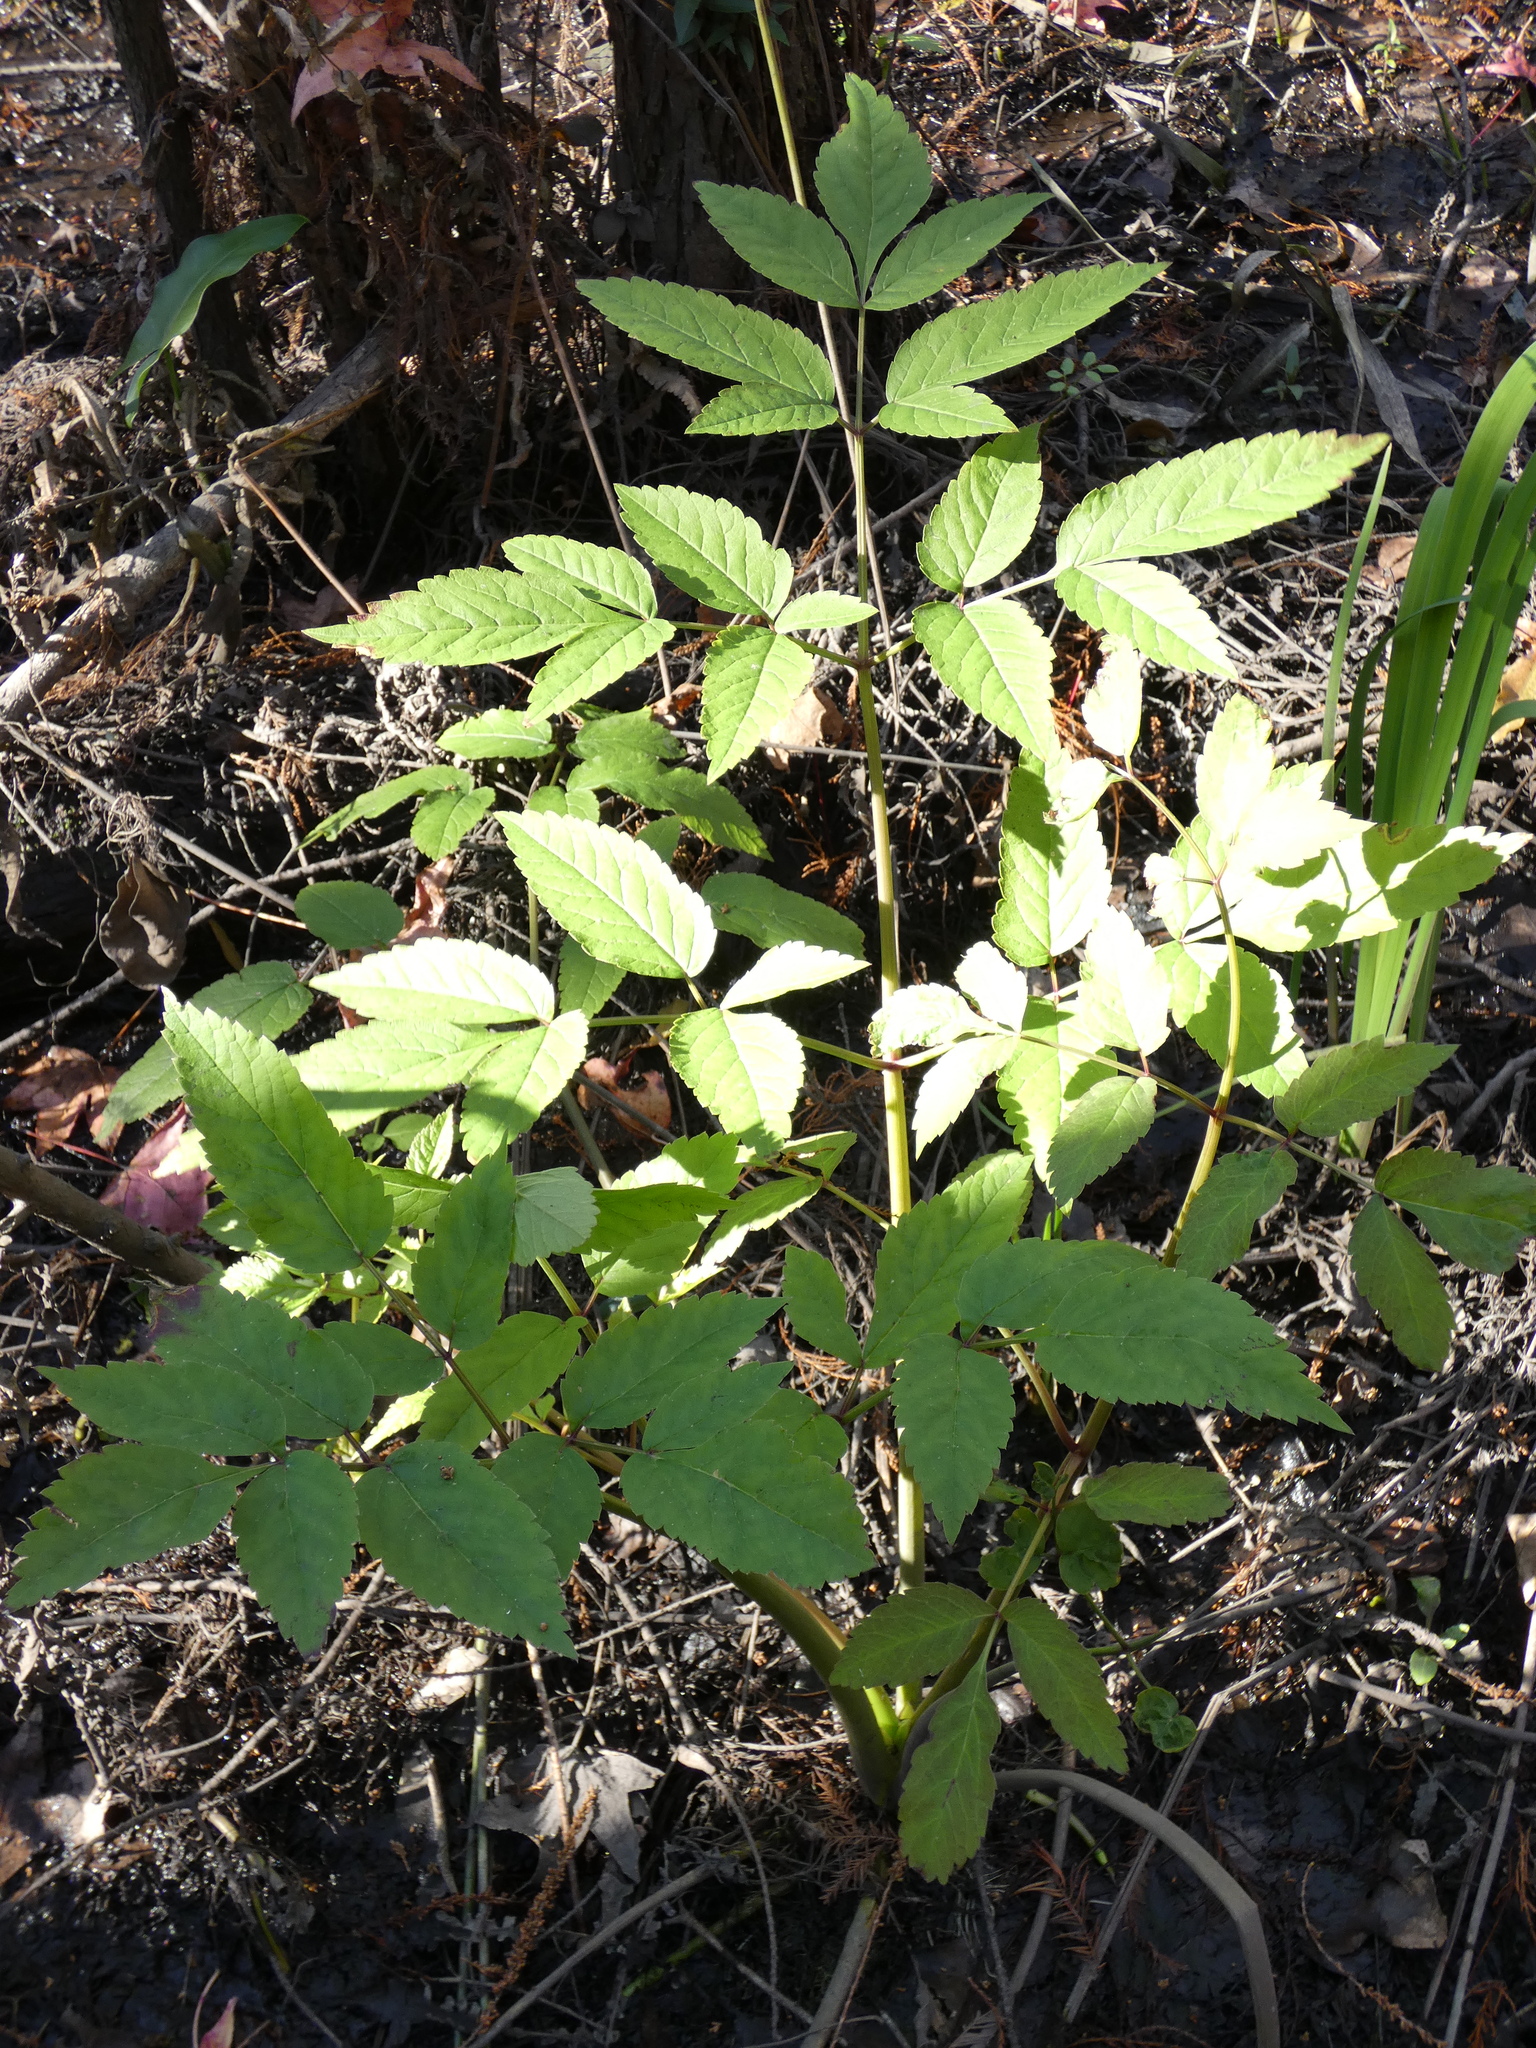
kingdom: Plantae
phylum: Tracheophyta
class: Magnoliopsida
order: Apiales
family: Apiaceae
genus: Cicuta
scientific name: Cicuta maculata
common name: Spotted cowbane
